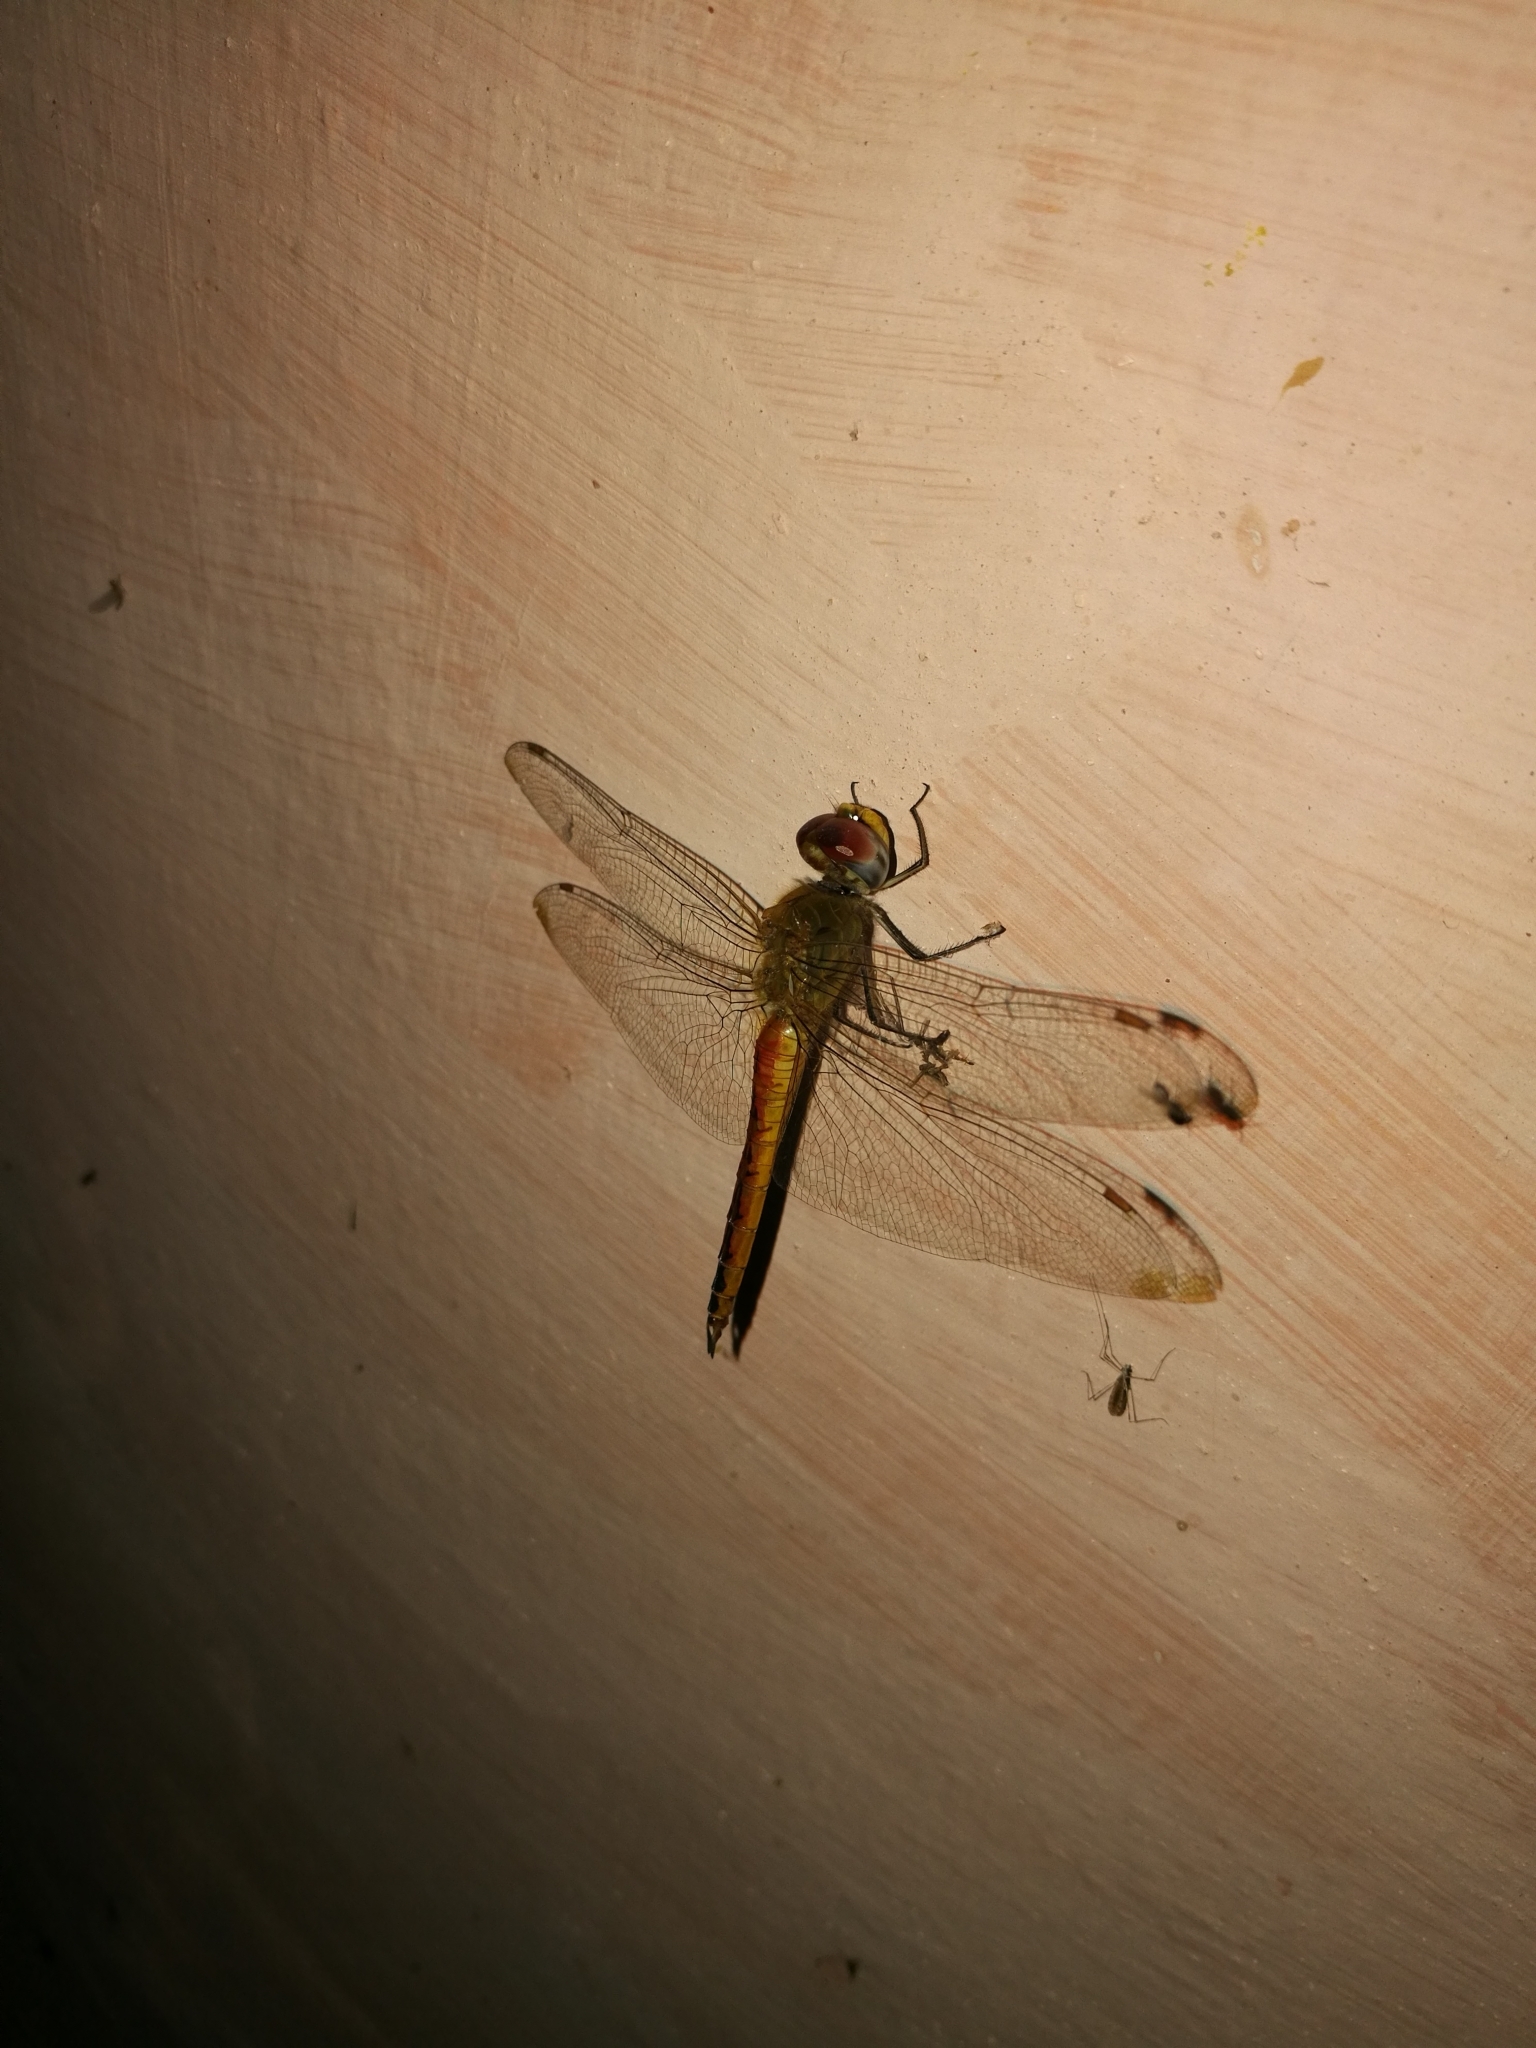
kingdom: Animalia
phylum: Arthropoda
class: Insecta
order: Odonata
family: Libellulidae
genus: Pantala
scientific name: Pantala flavescens
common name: Wandering glider
